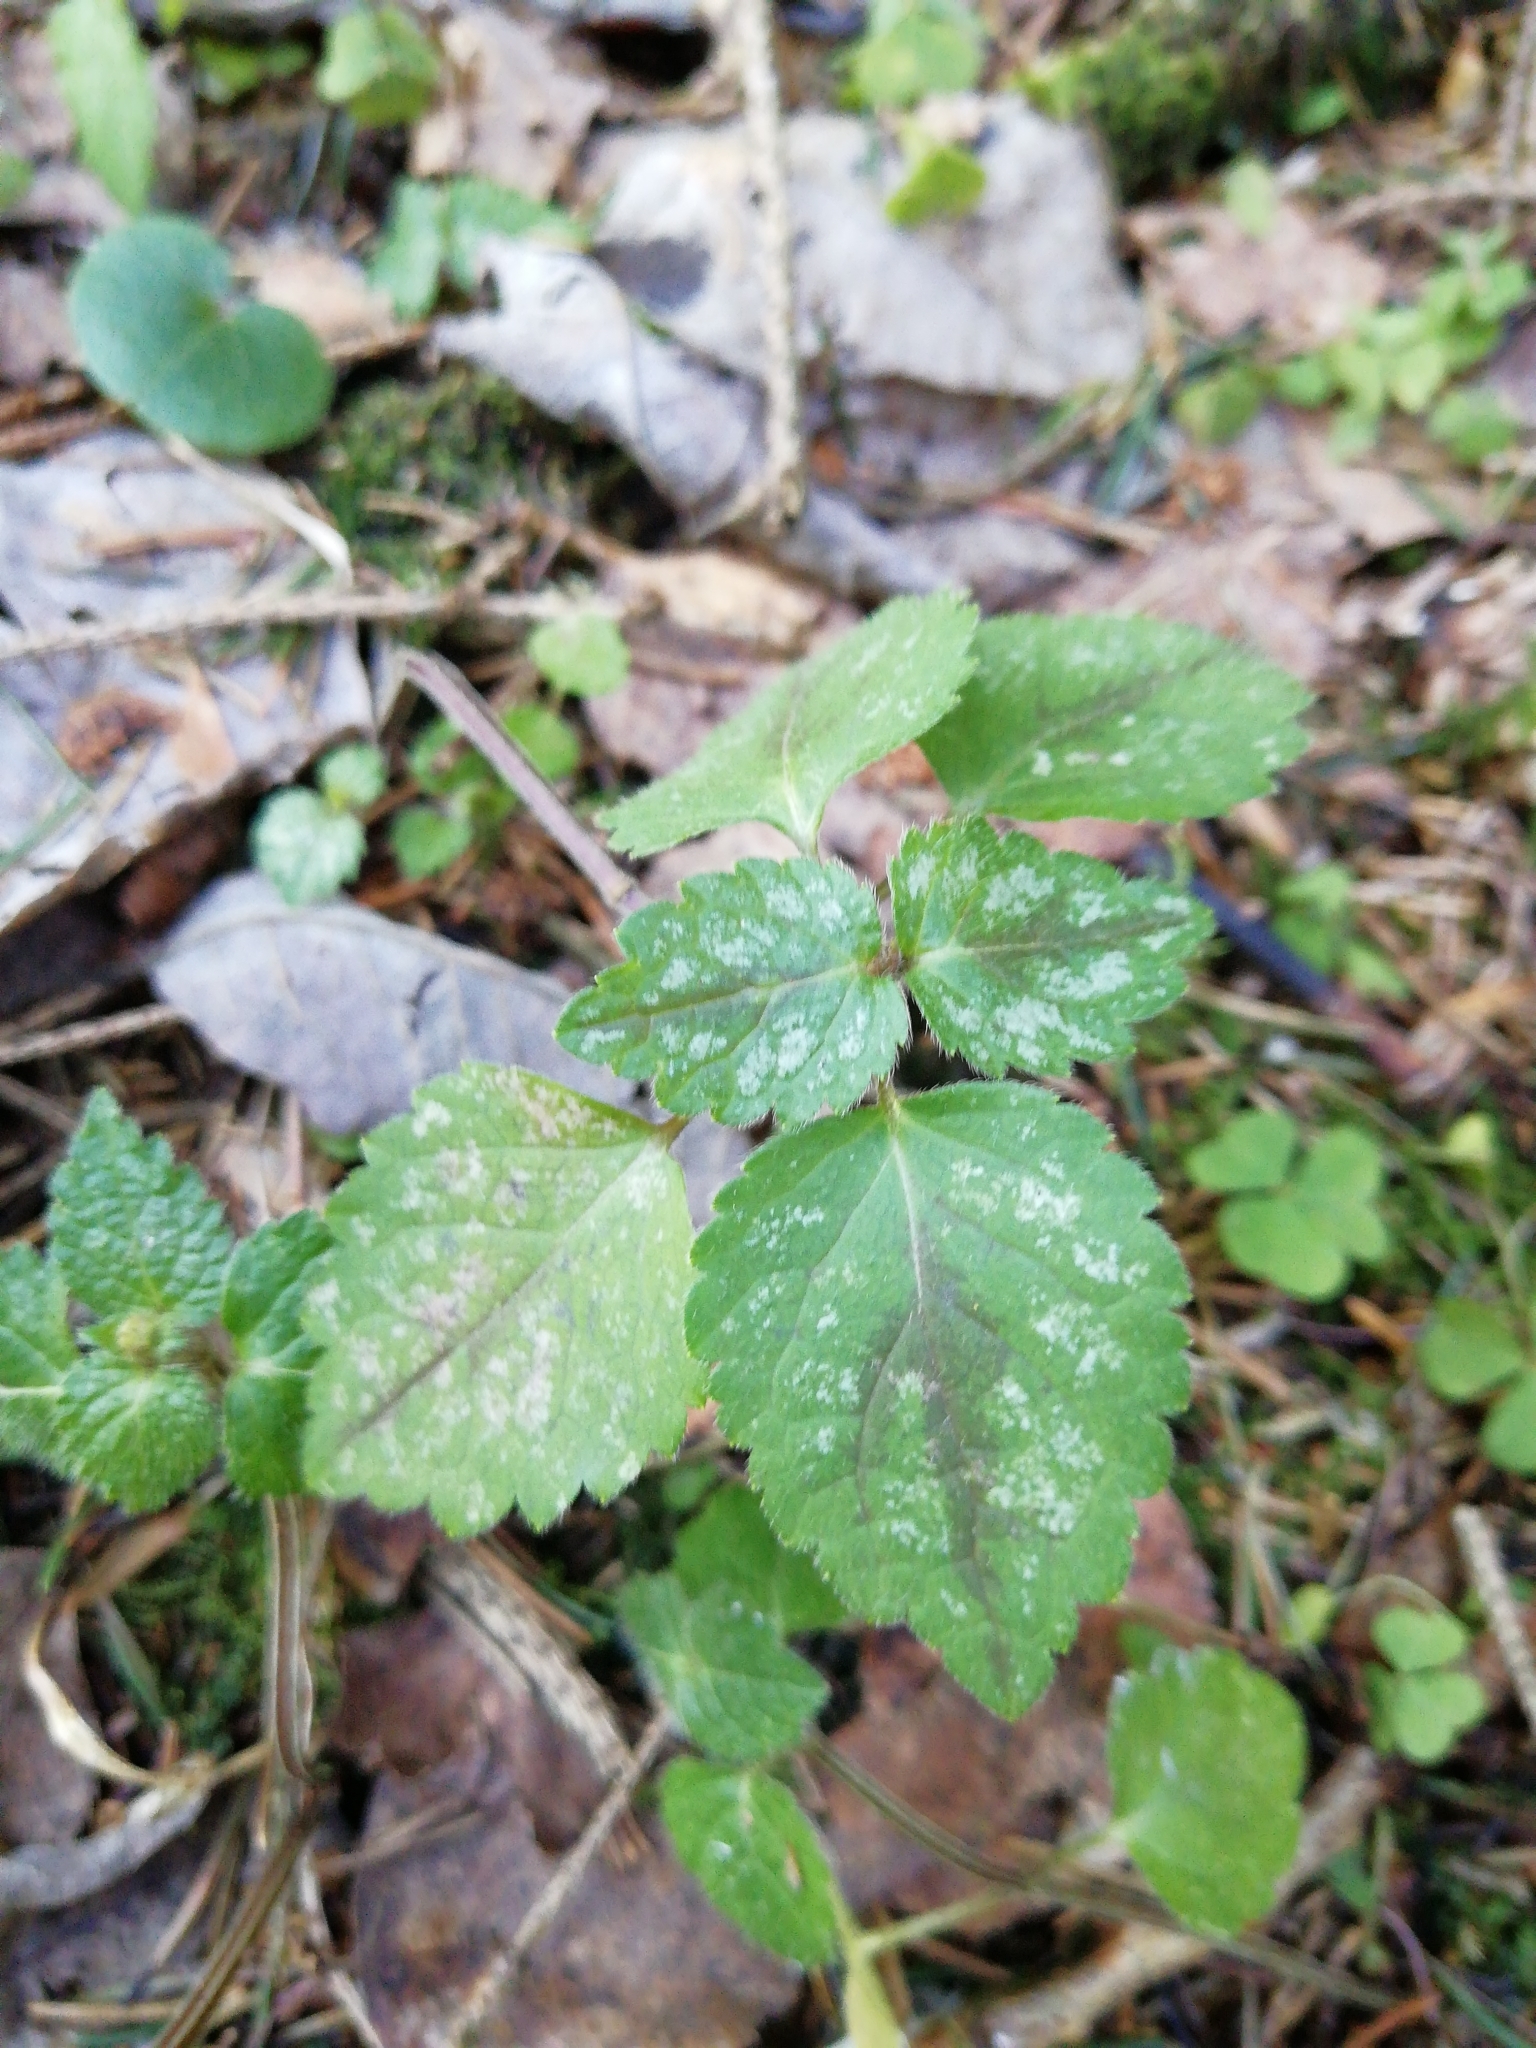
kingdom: Plantae
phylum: Tracheophyta
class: Magnoliopsida
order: Lamiales
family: Lamiaceae
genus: Lamium
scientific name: Lamium galeobdolon
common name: Yellow archangel
